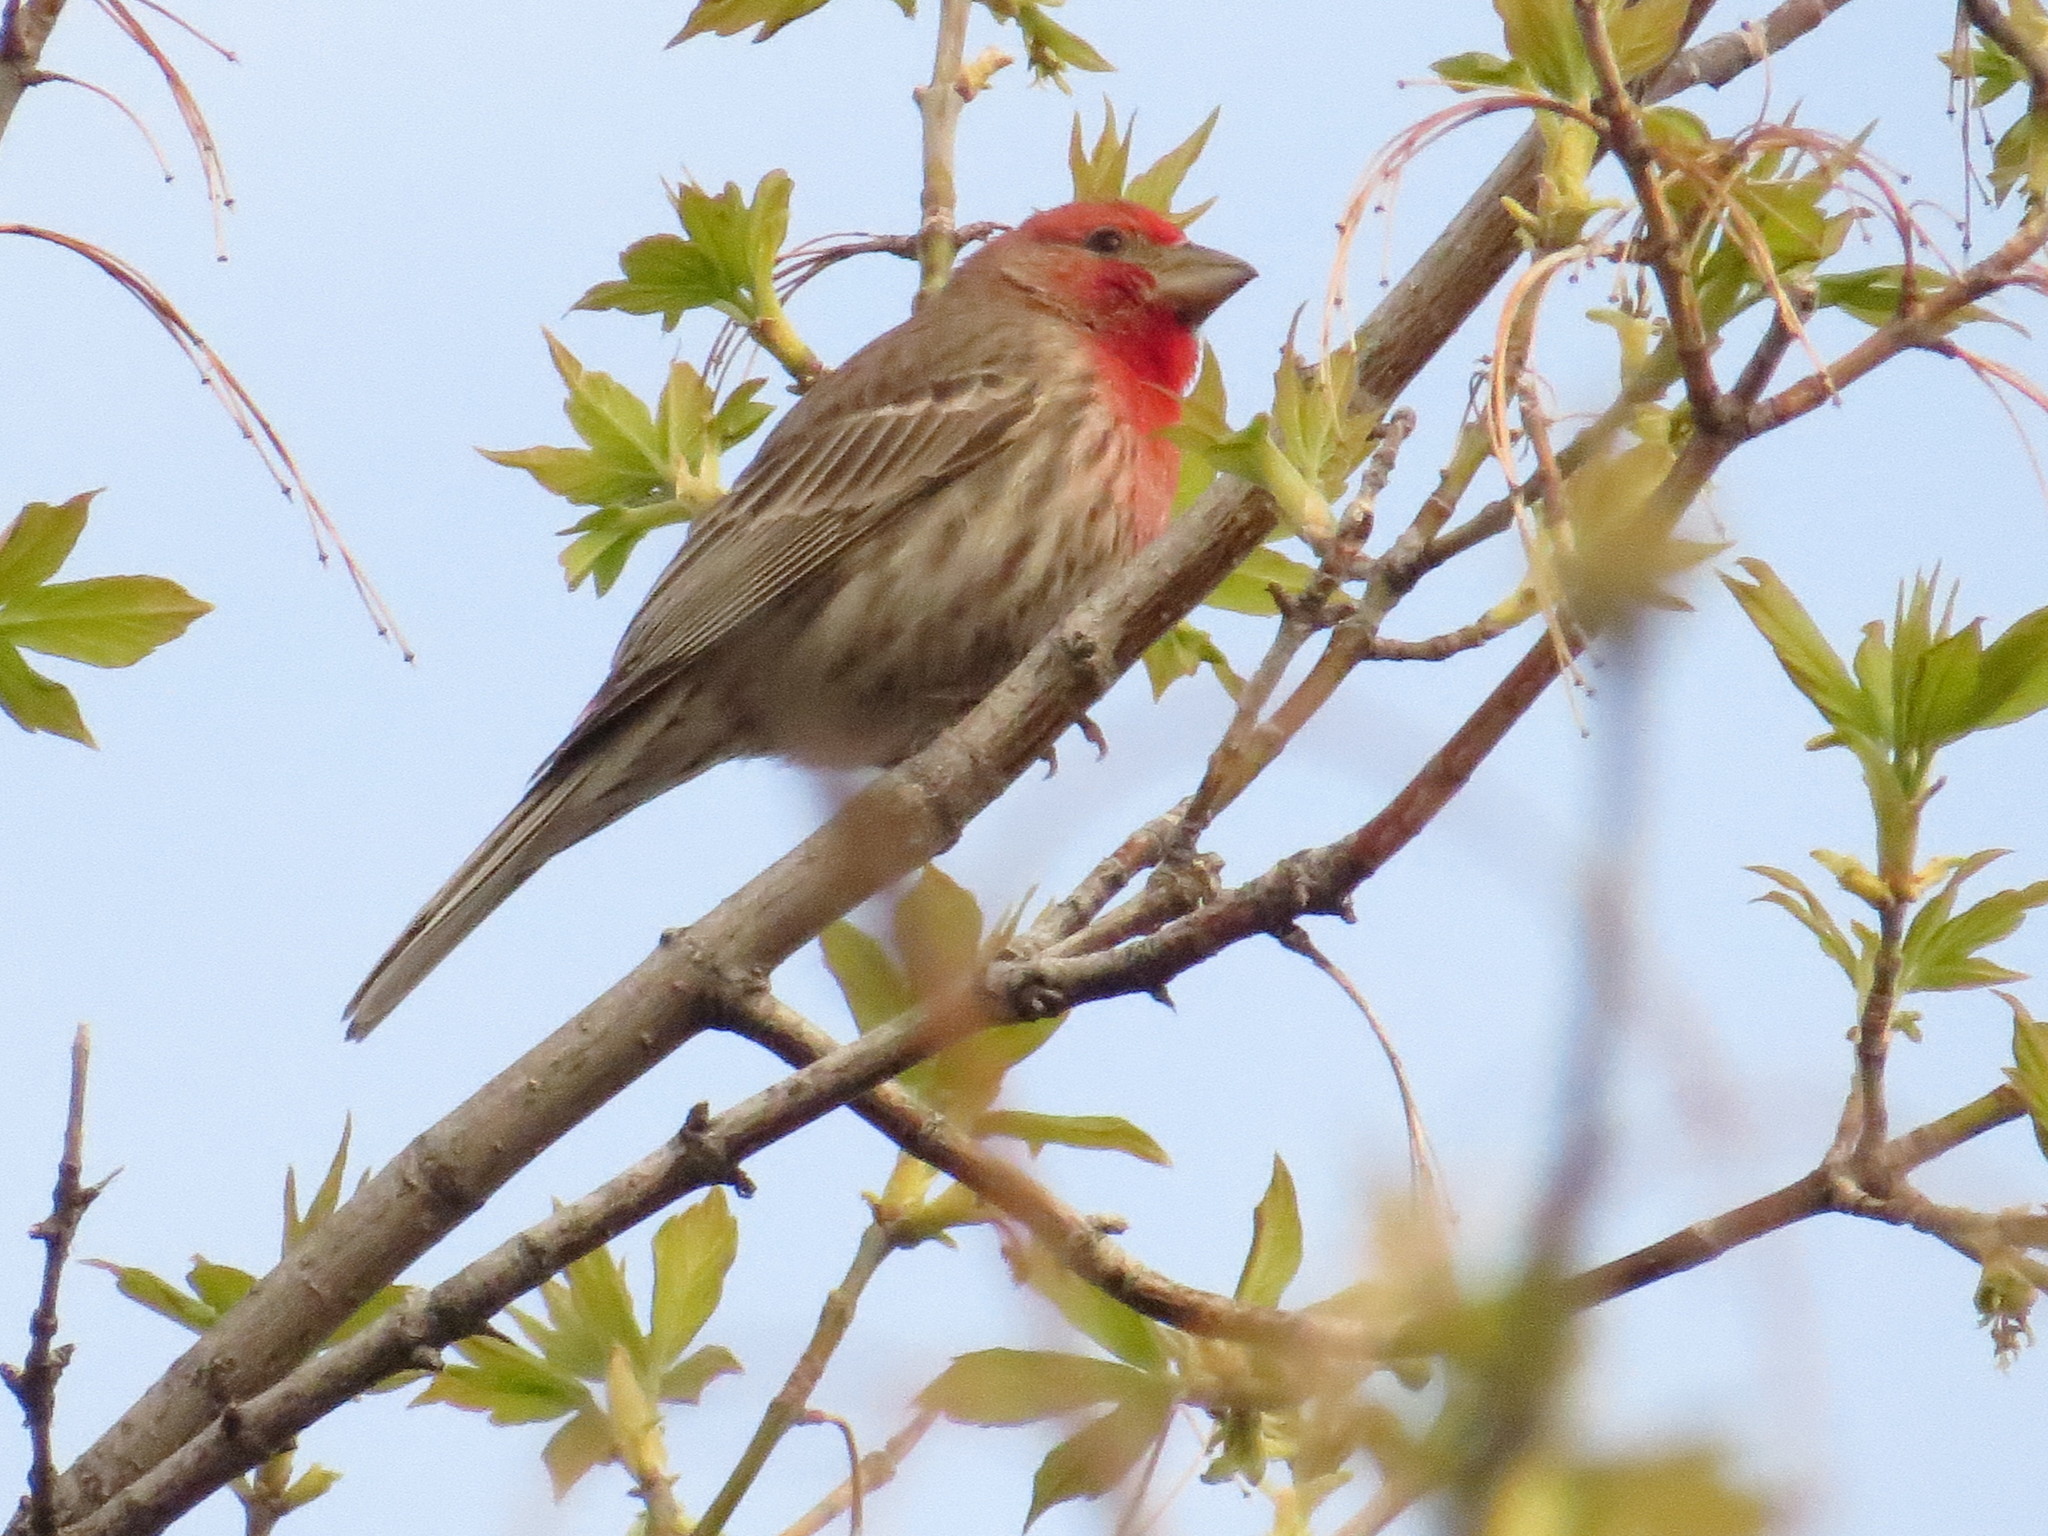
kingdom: Animalia
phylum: Chordata
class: Aves
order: Passeriformes
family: Fringillidae
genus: Haemorhous
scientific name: Haemorhous mexicanus
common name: House finch
